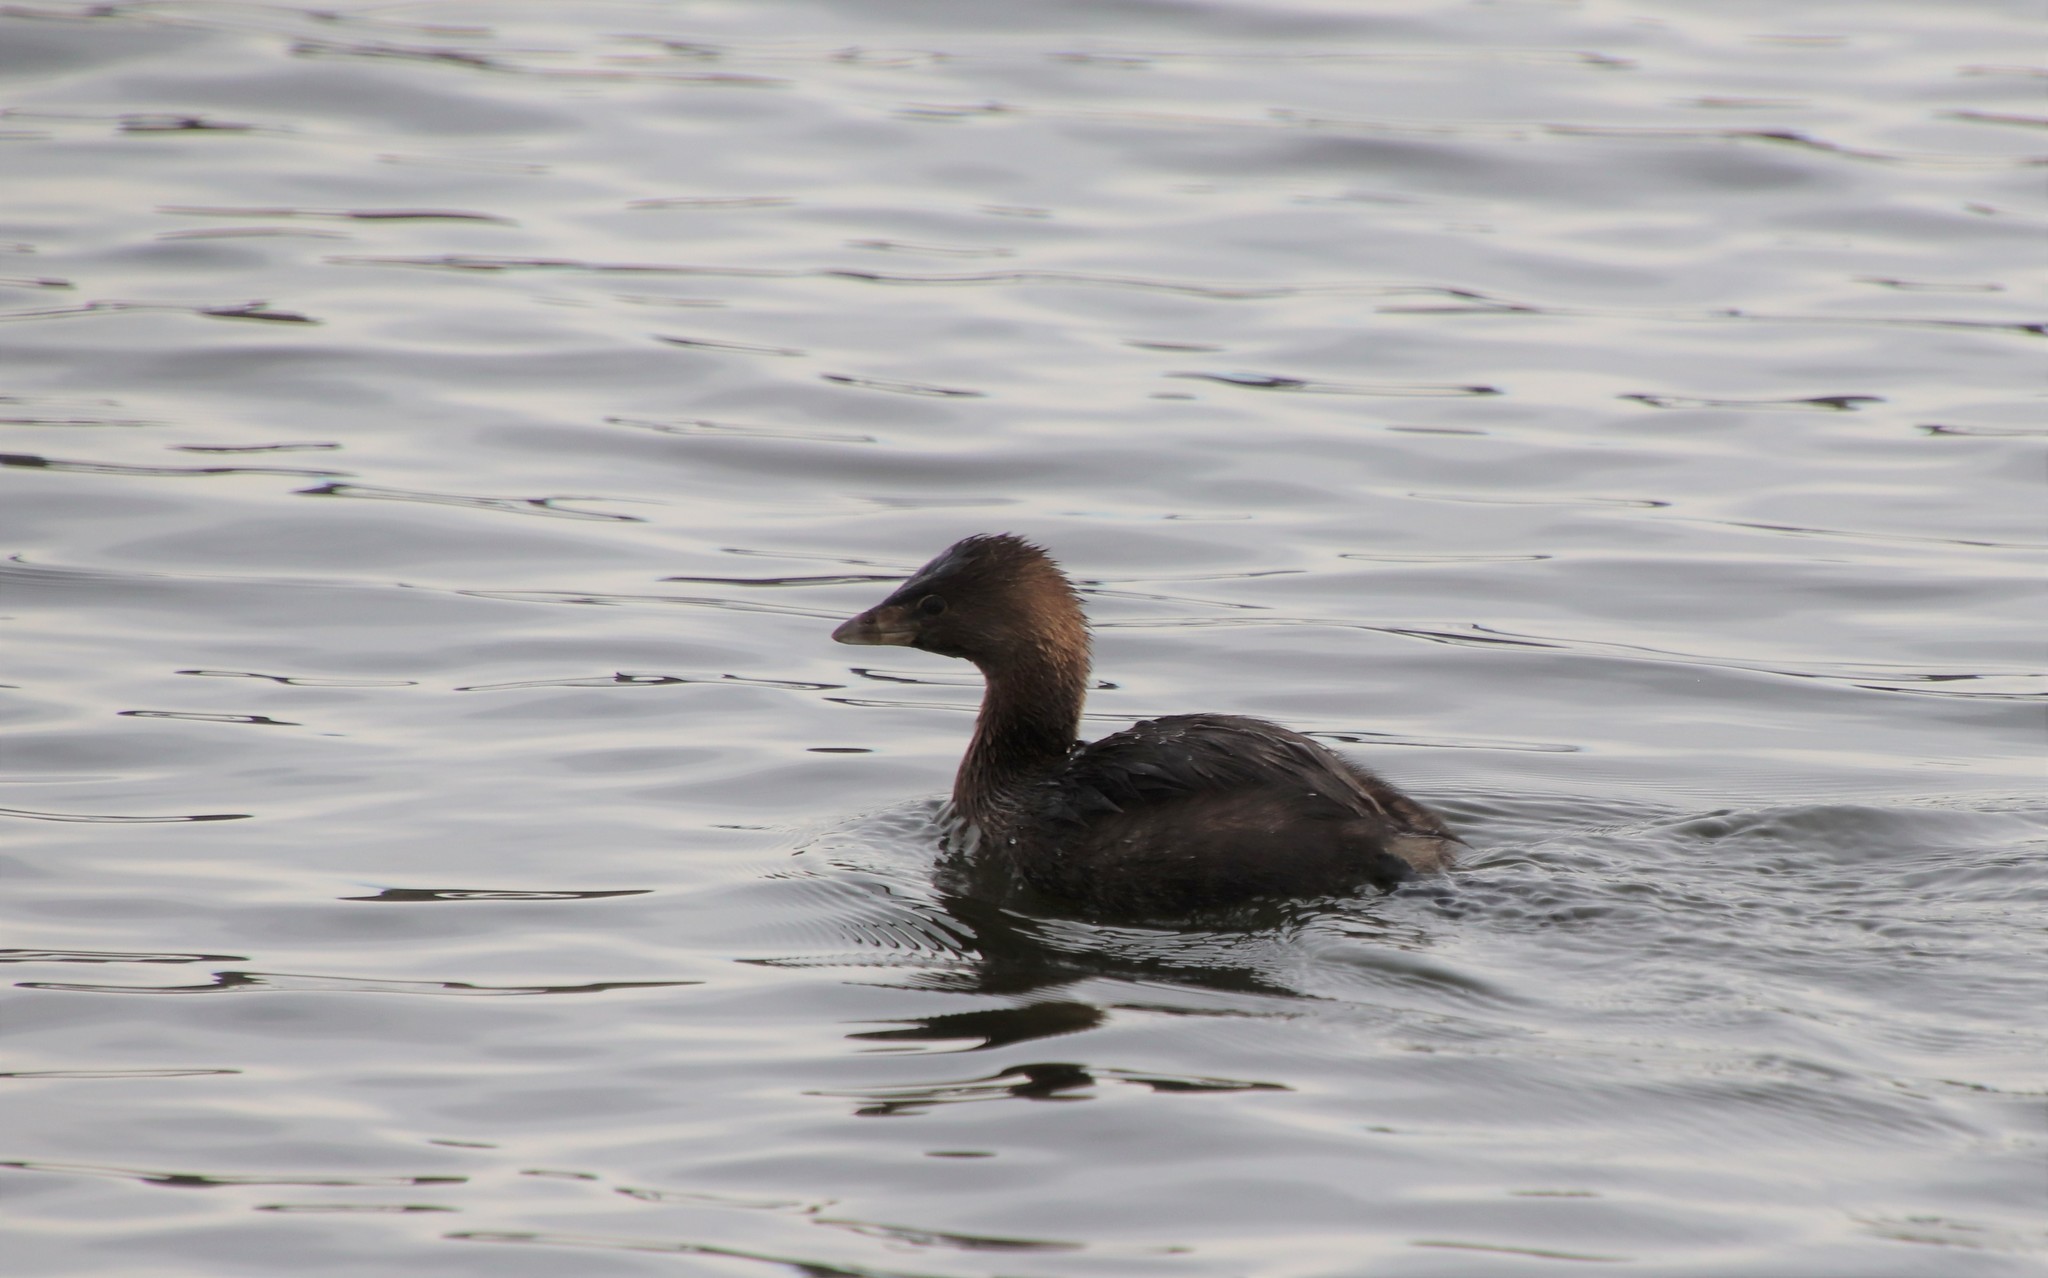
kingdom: Animalia
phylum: Chordata
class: Aves
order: Podicipediformes
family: Podicipedidae
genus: Podilymbus
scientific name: Podilymbus podiceps
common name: Pied-billed grebe
